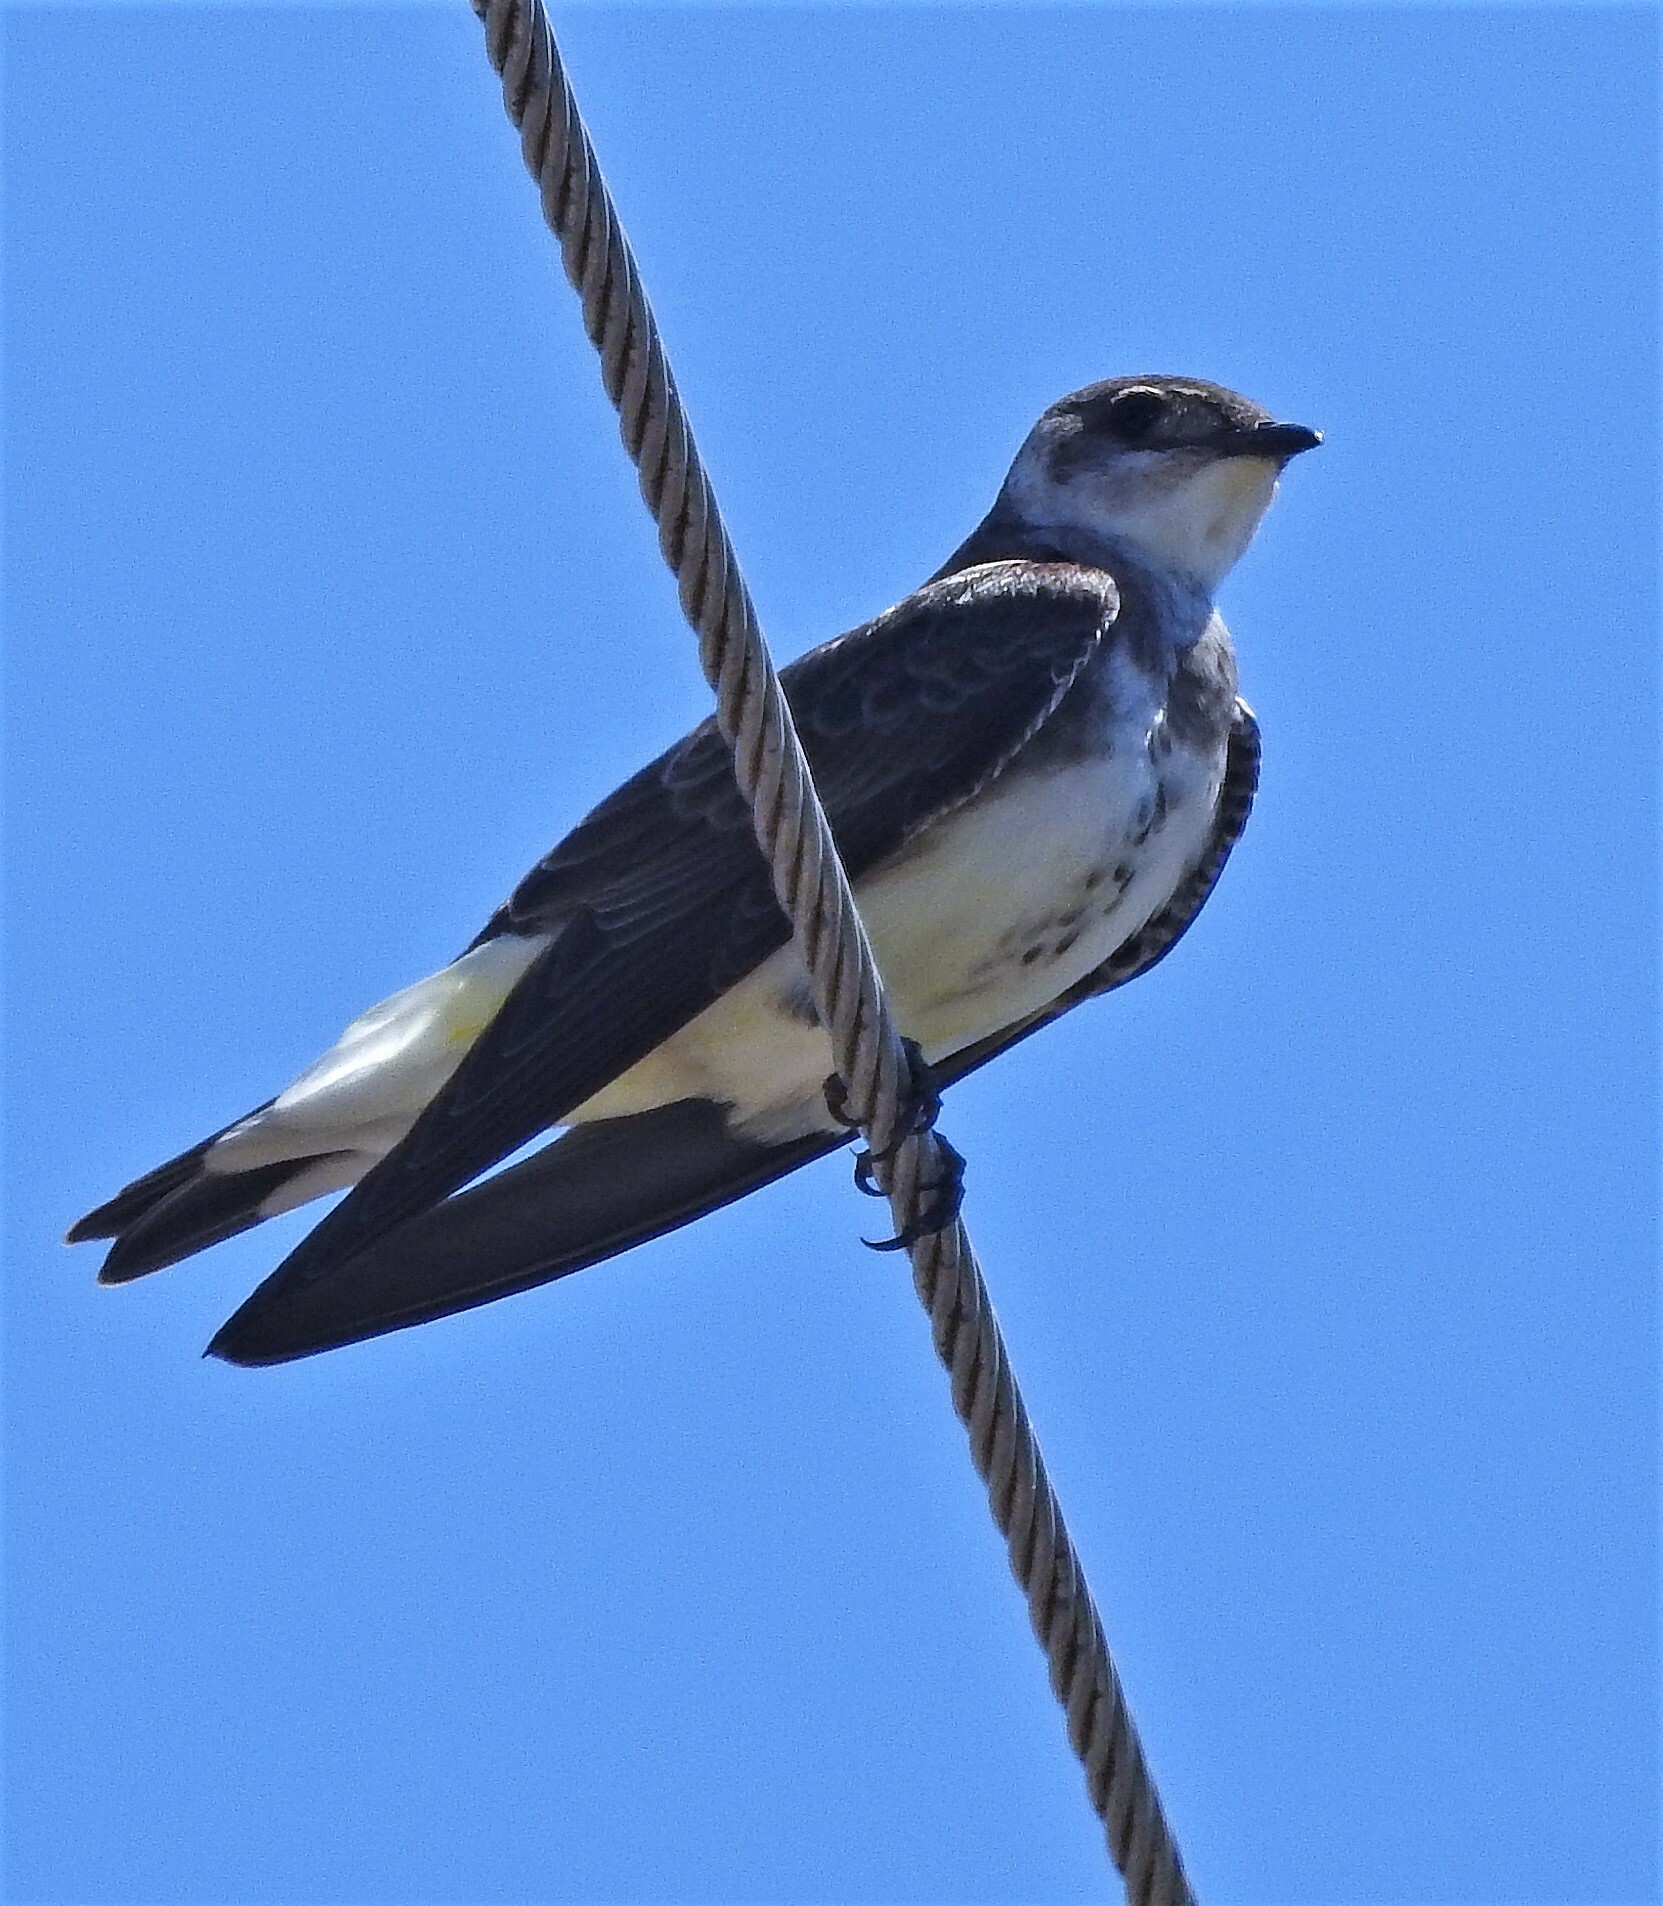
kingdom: Animalia
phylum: Chordata
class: Aves
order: Passeriformes
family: Hirundinidae
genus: Progne
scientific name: Progne tapera
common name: Brown-chested martin
